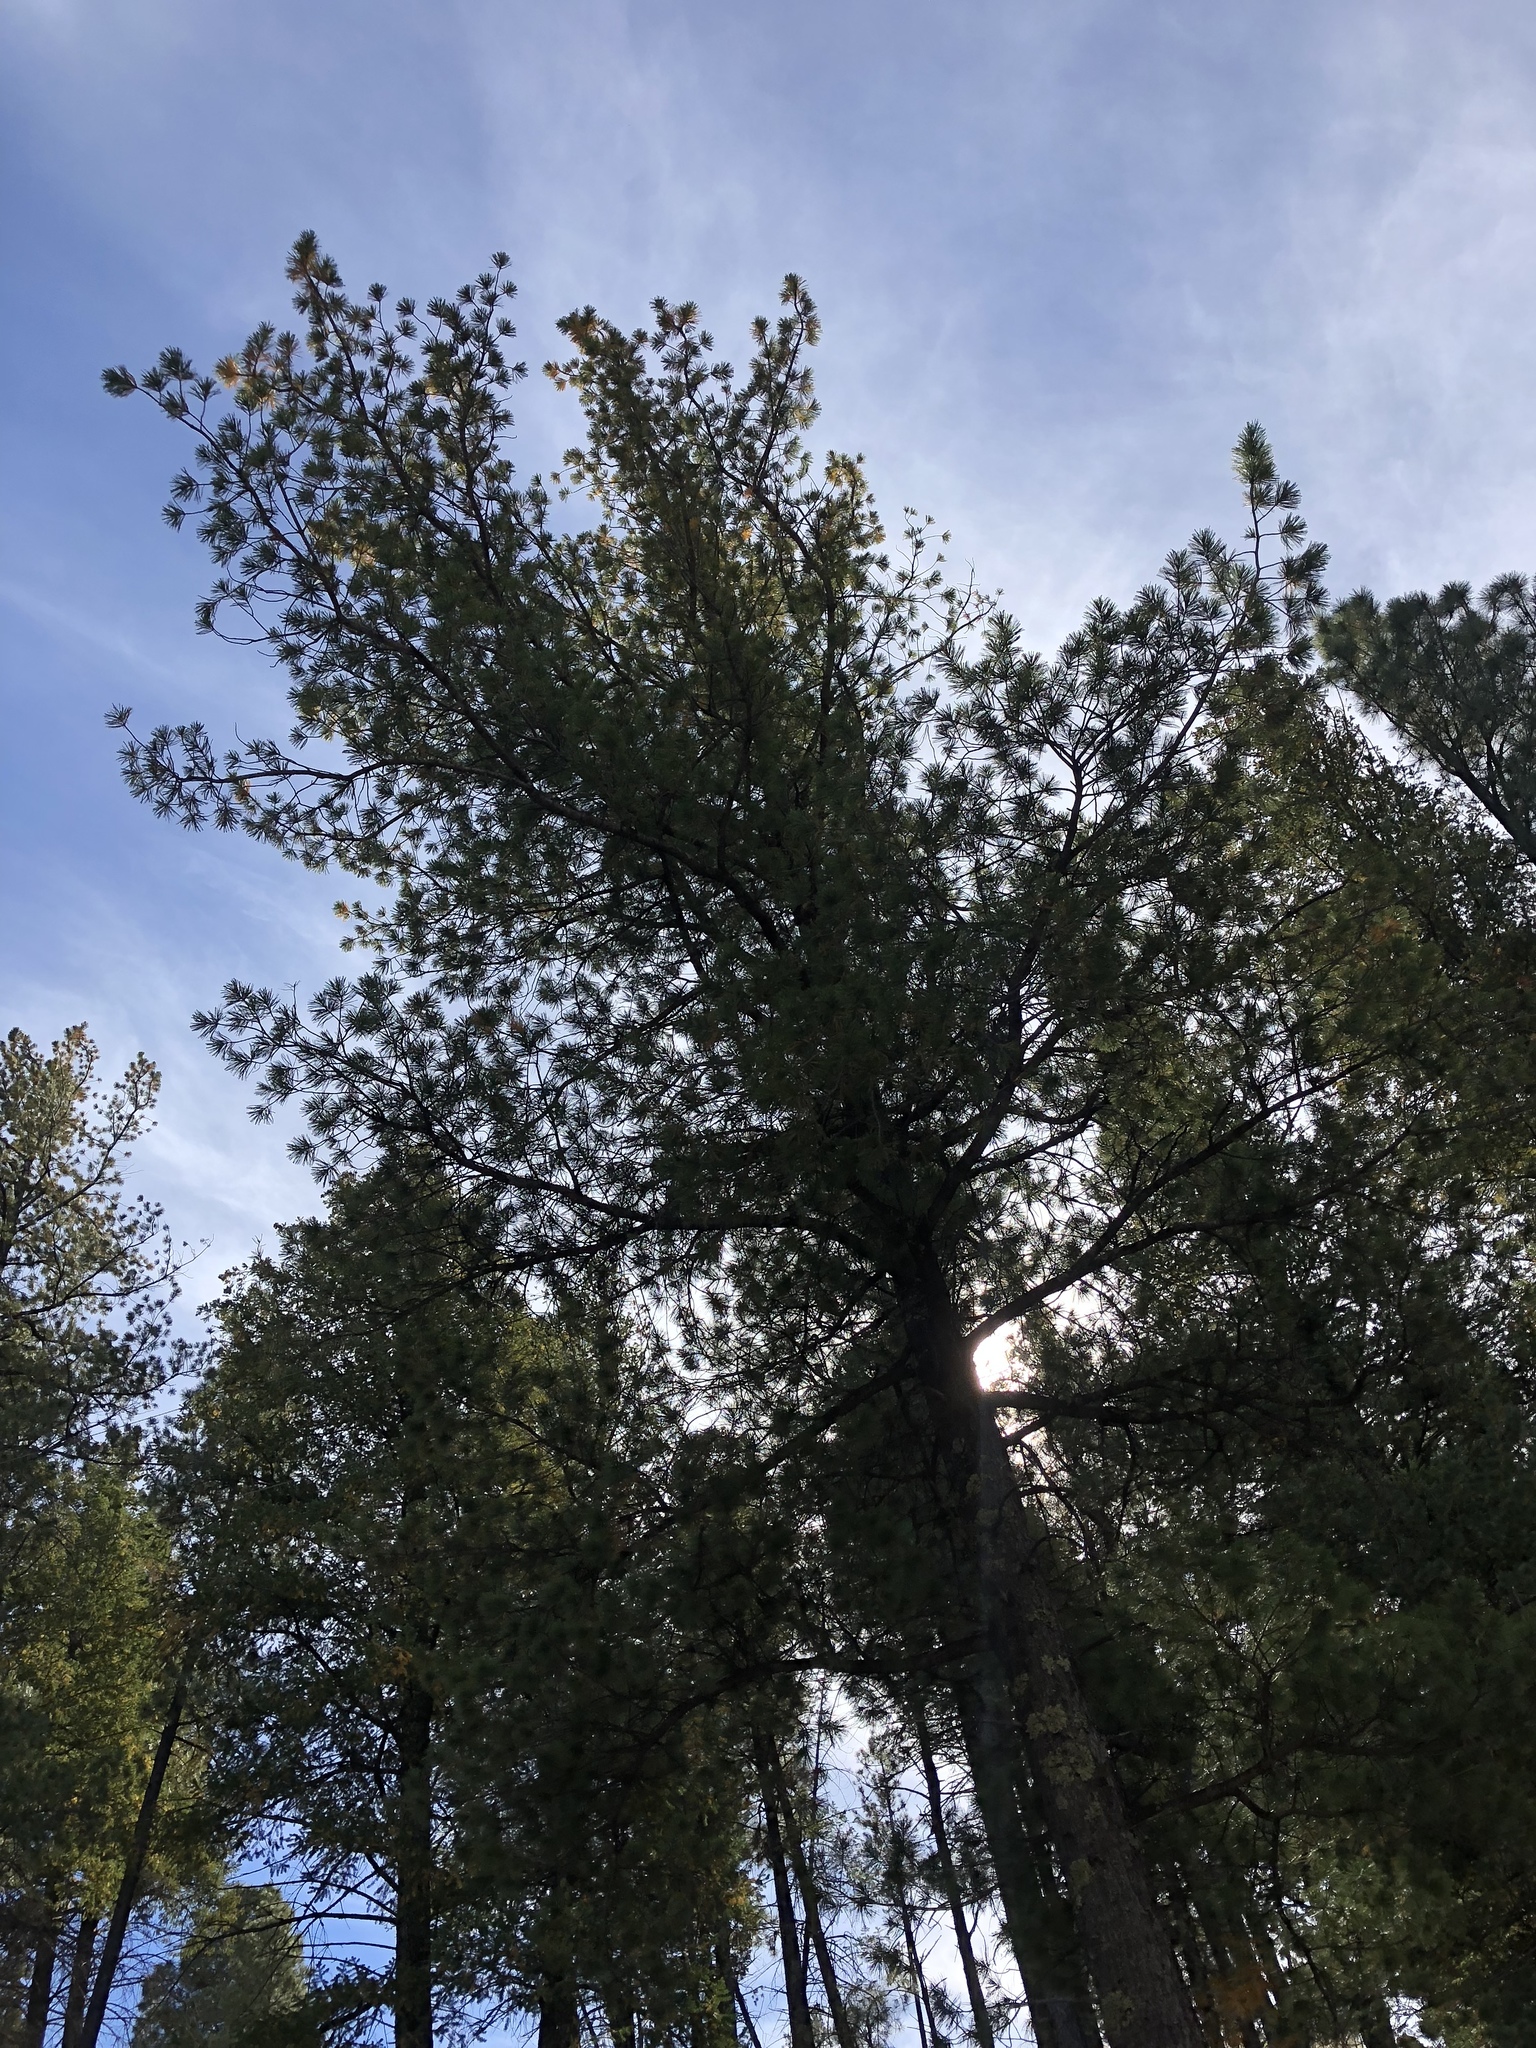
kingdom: Plantae
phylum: Tracheophyta
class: Pinopsida
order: Pinales
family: Pinaceae
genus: Pinus
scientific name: Pinus strobiformis
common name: Southwestern white pine
